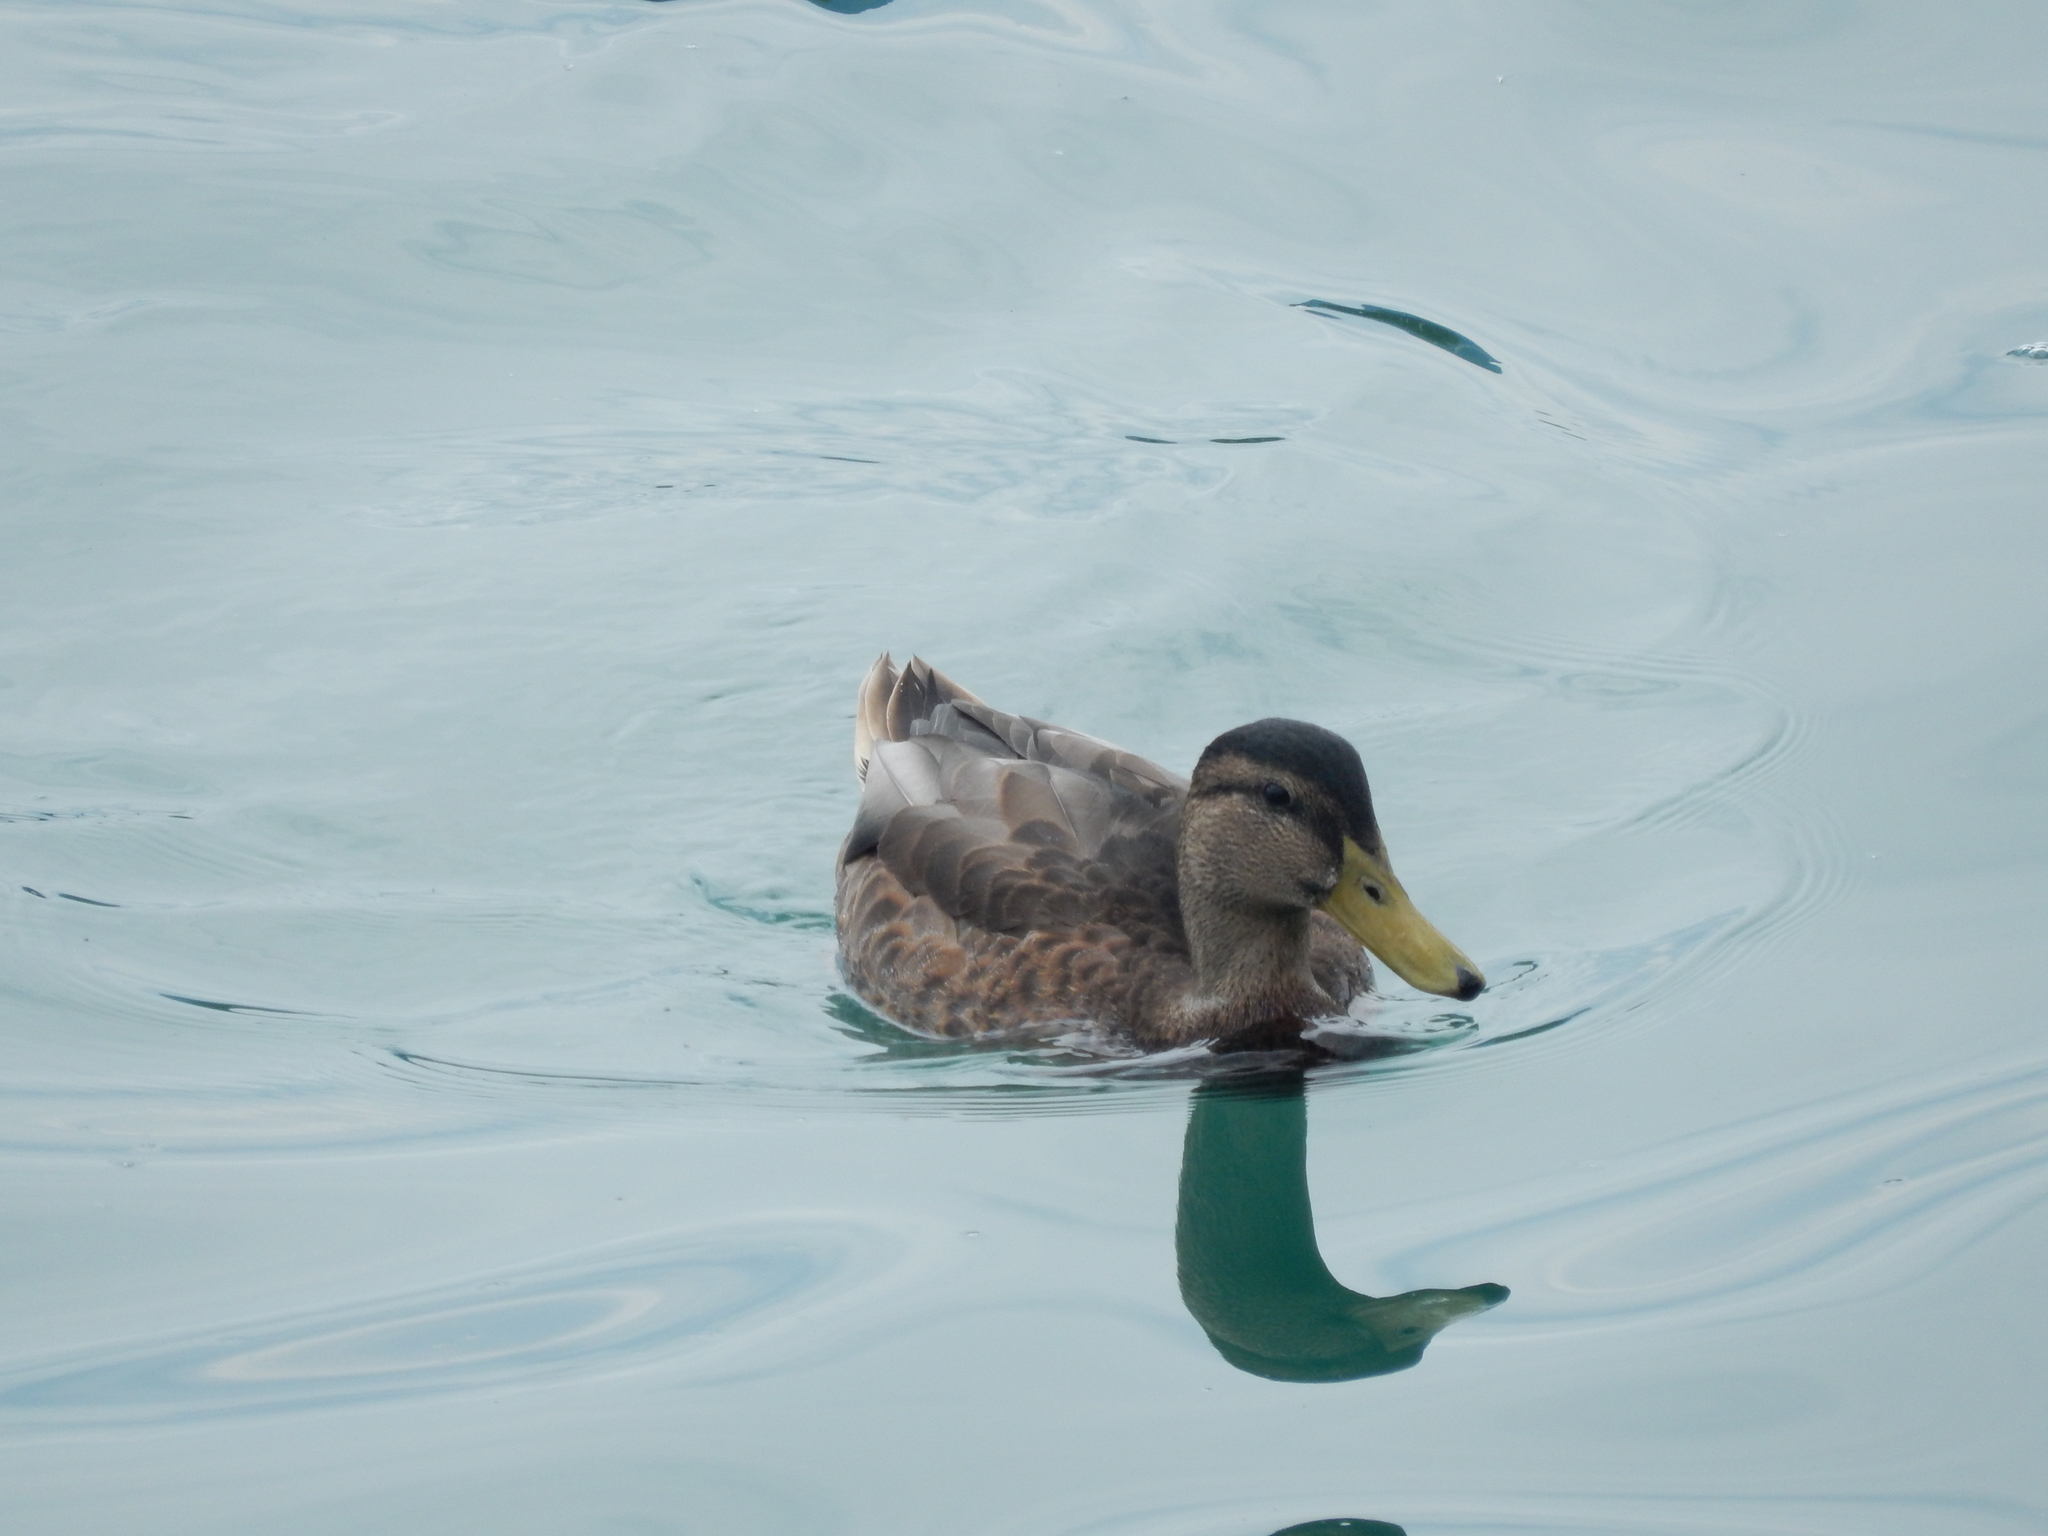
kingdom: Animalia
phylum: Chordata
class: Aves
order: Anseriformes
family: Anatidae
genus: Anas
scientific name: Anas platyrhynchos
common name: Mallard
